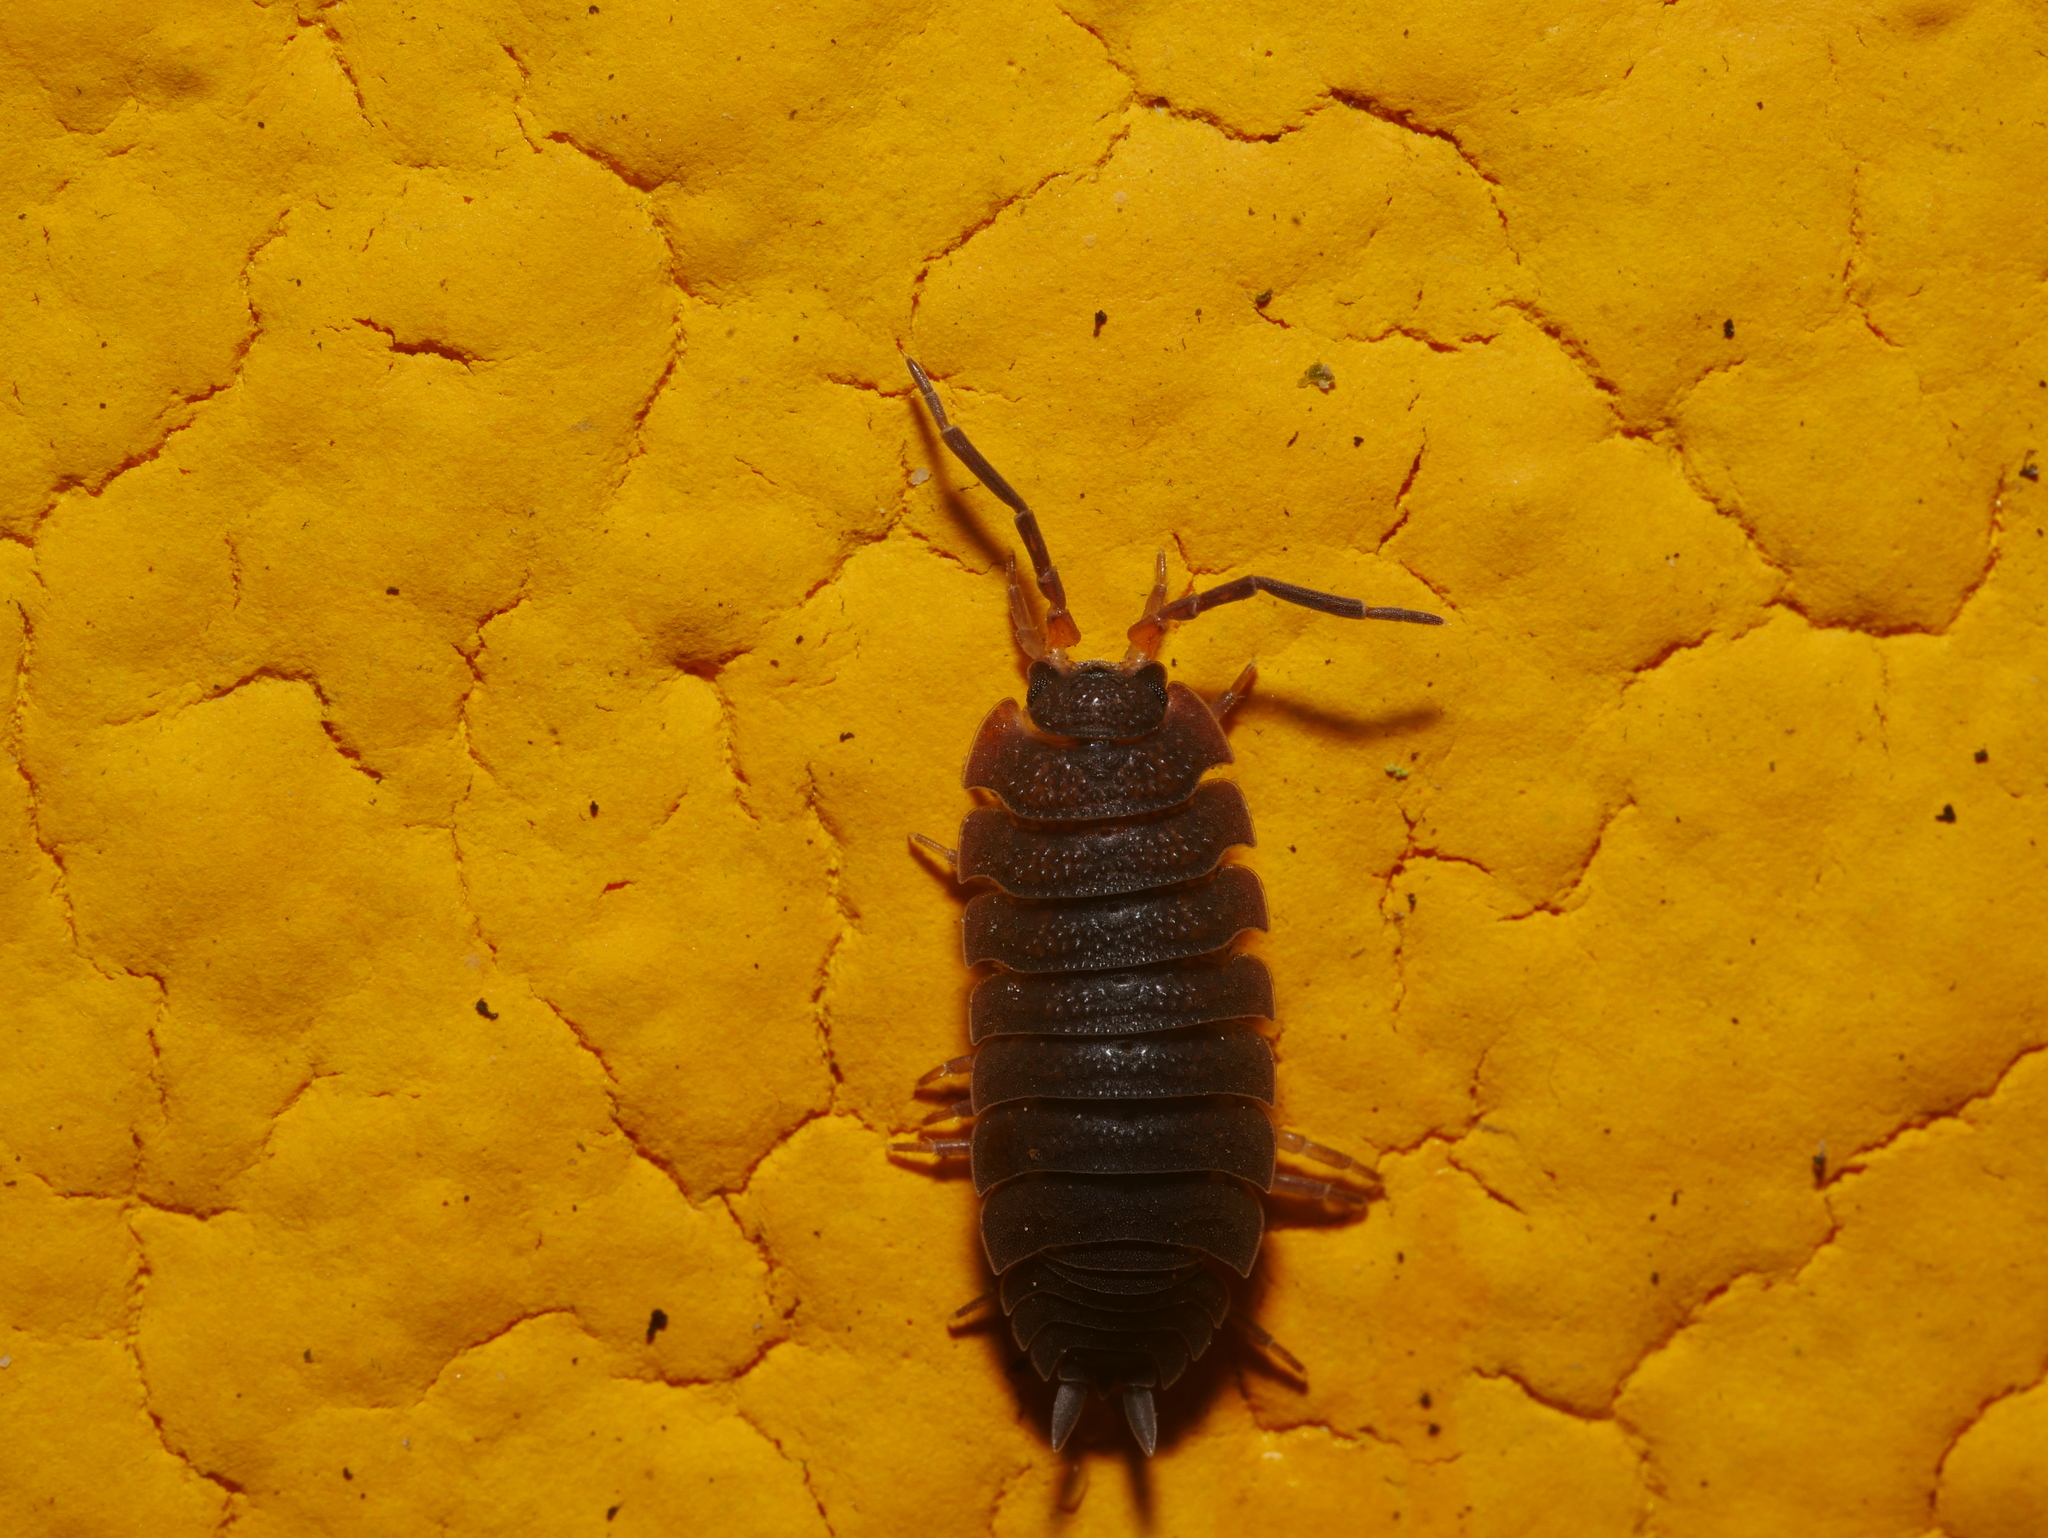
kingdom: Animalia
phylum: Arthropoda
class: Malacostraca
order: Isopoda
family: Porcellionidae
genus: Porcellio
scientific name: Porcellio scaber
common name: Common rough woodlouse
